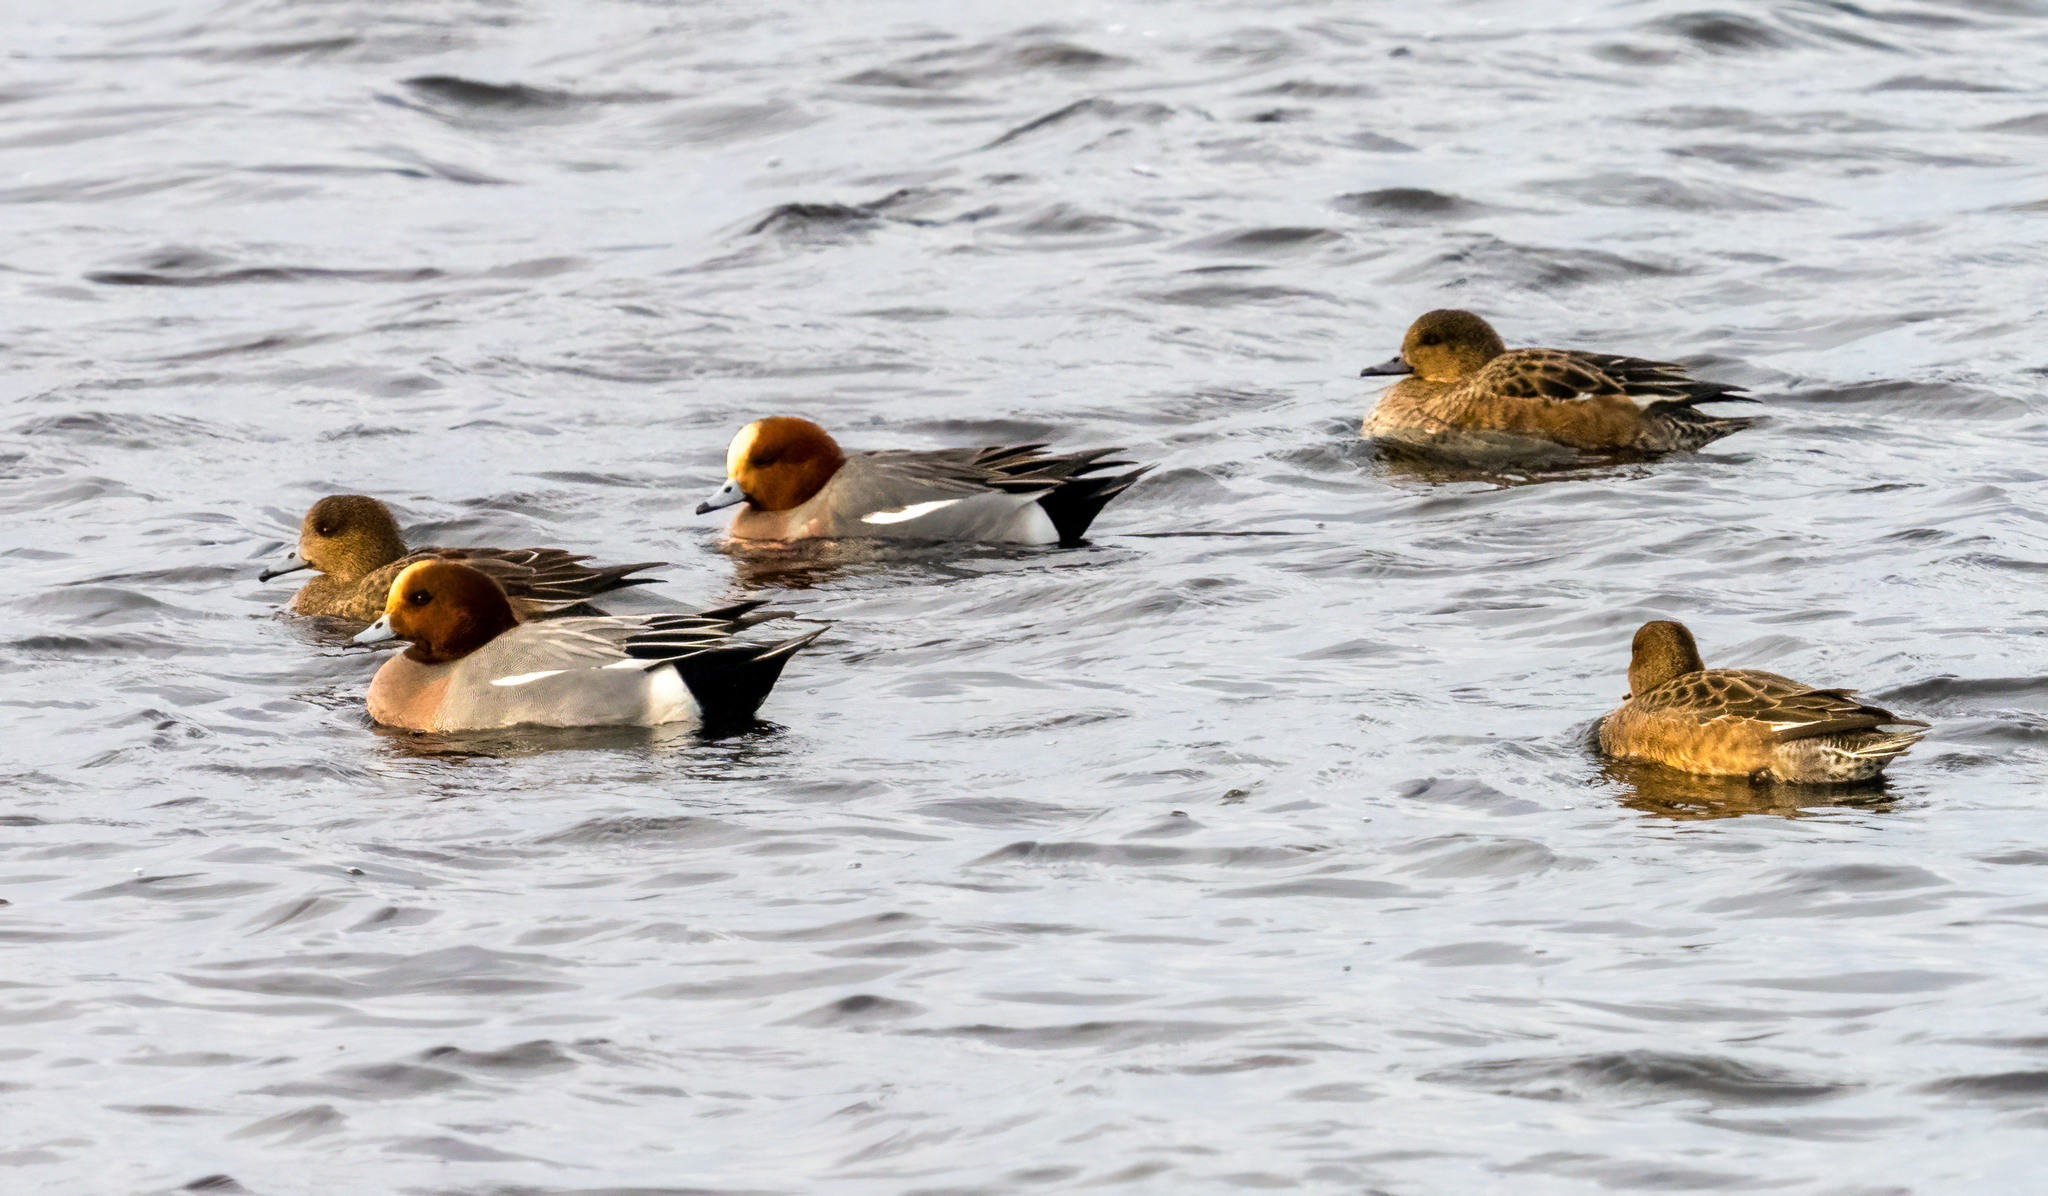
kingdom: Animalia
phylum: Chordata
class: Aves
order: Anseriformes
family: Anatidae
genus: Mareca
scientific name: Mareca penelope
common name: Eurasian wigeon
